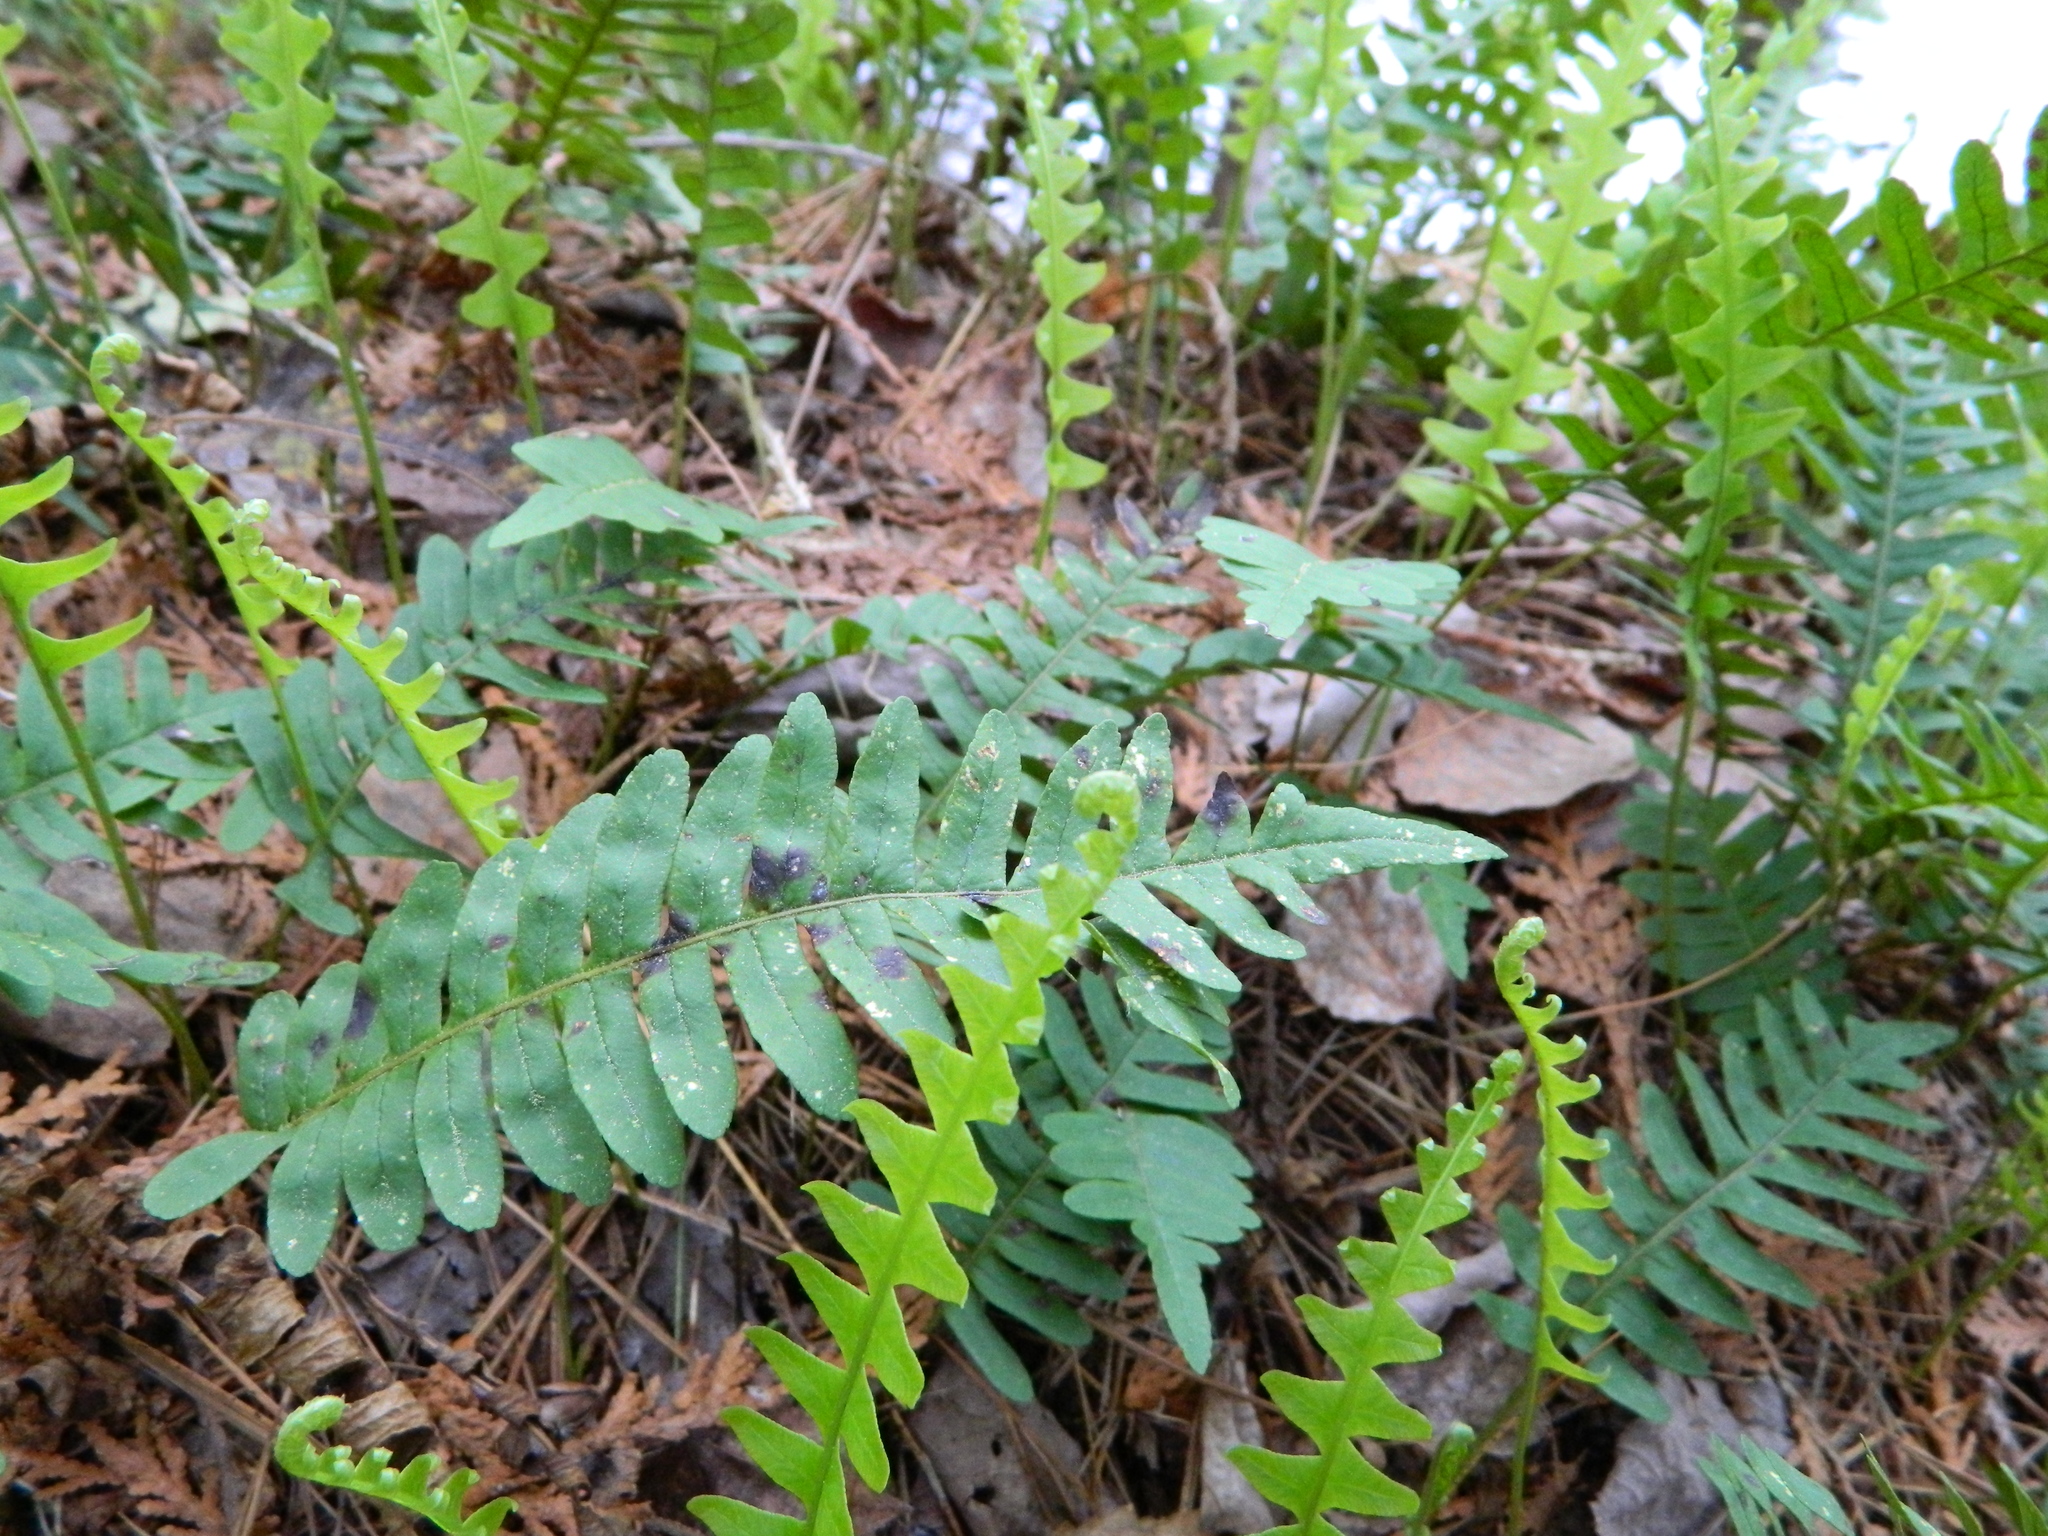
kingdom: Plantae
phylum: Tracheophyta
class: Polypodiopsida
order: Polypodiales
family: Polypodiaceae
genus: Polypodium
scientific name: Polypodium virginianum
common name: American wall fern
